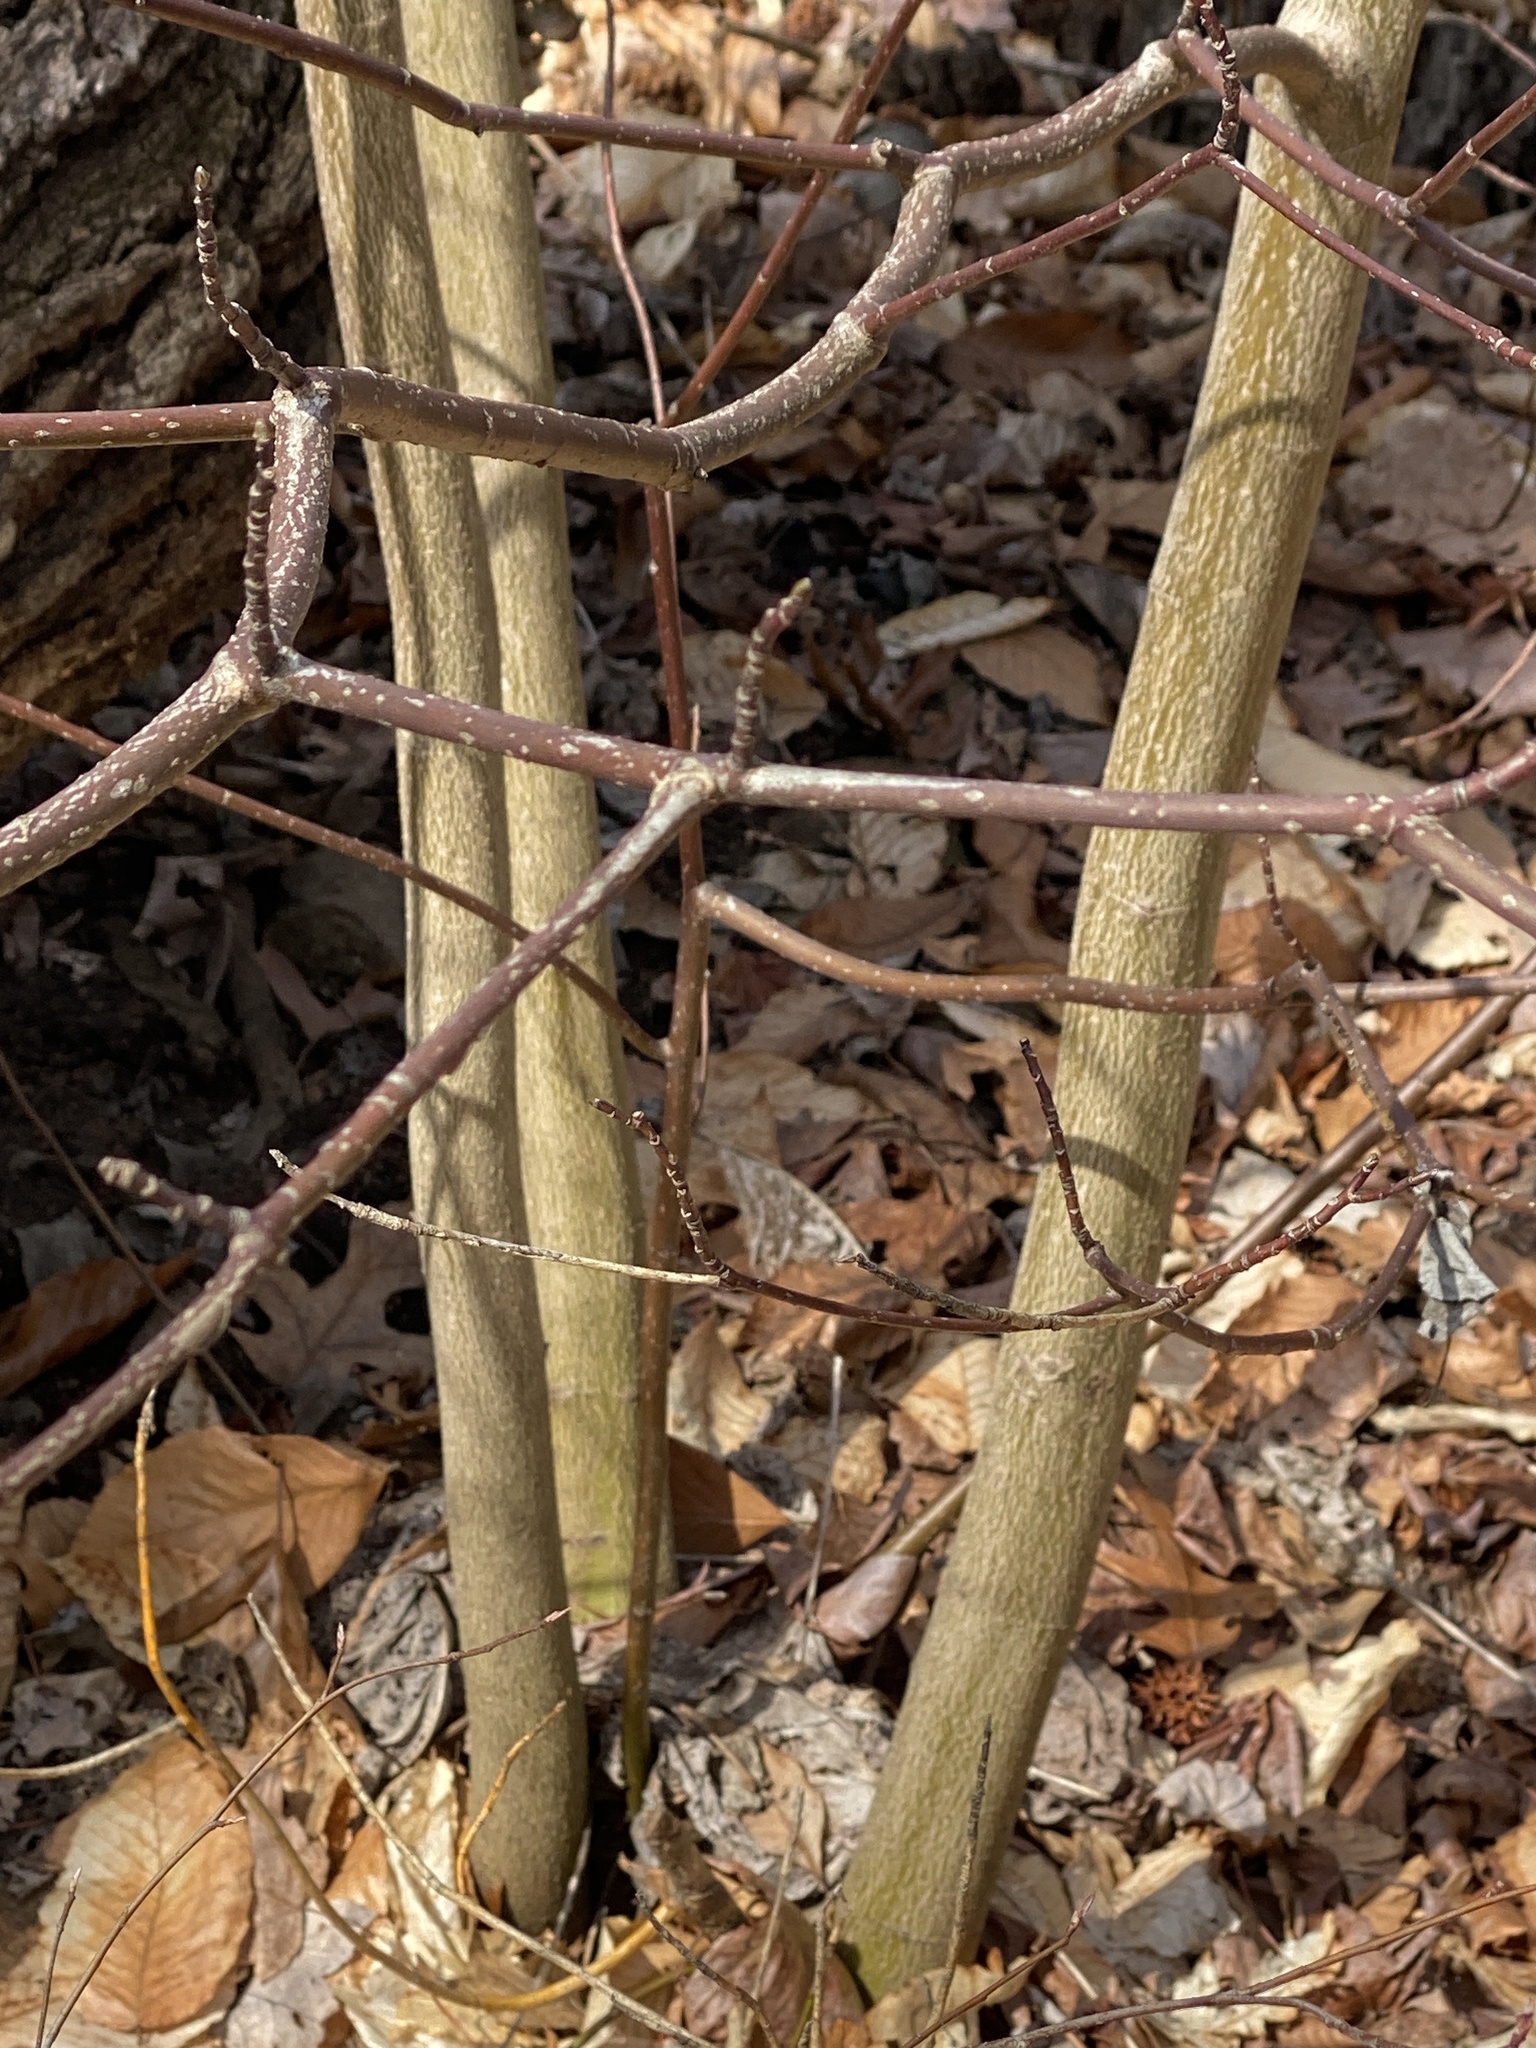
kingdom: Plantae
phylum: Tracheophyta
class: Magnoliopsida
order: Cornales
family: Cornaceae
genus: Cornus
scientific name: Cornus alternifolia
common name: Pagoda dogwood
